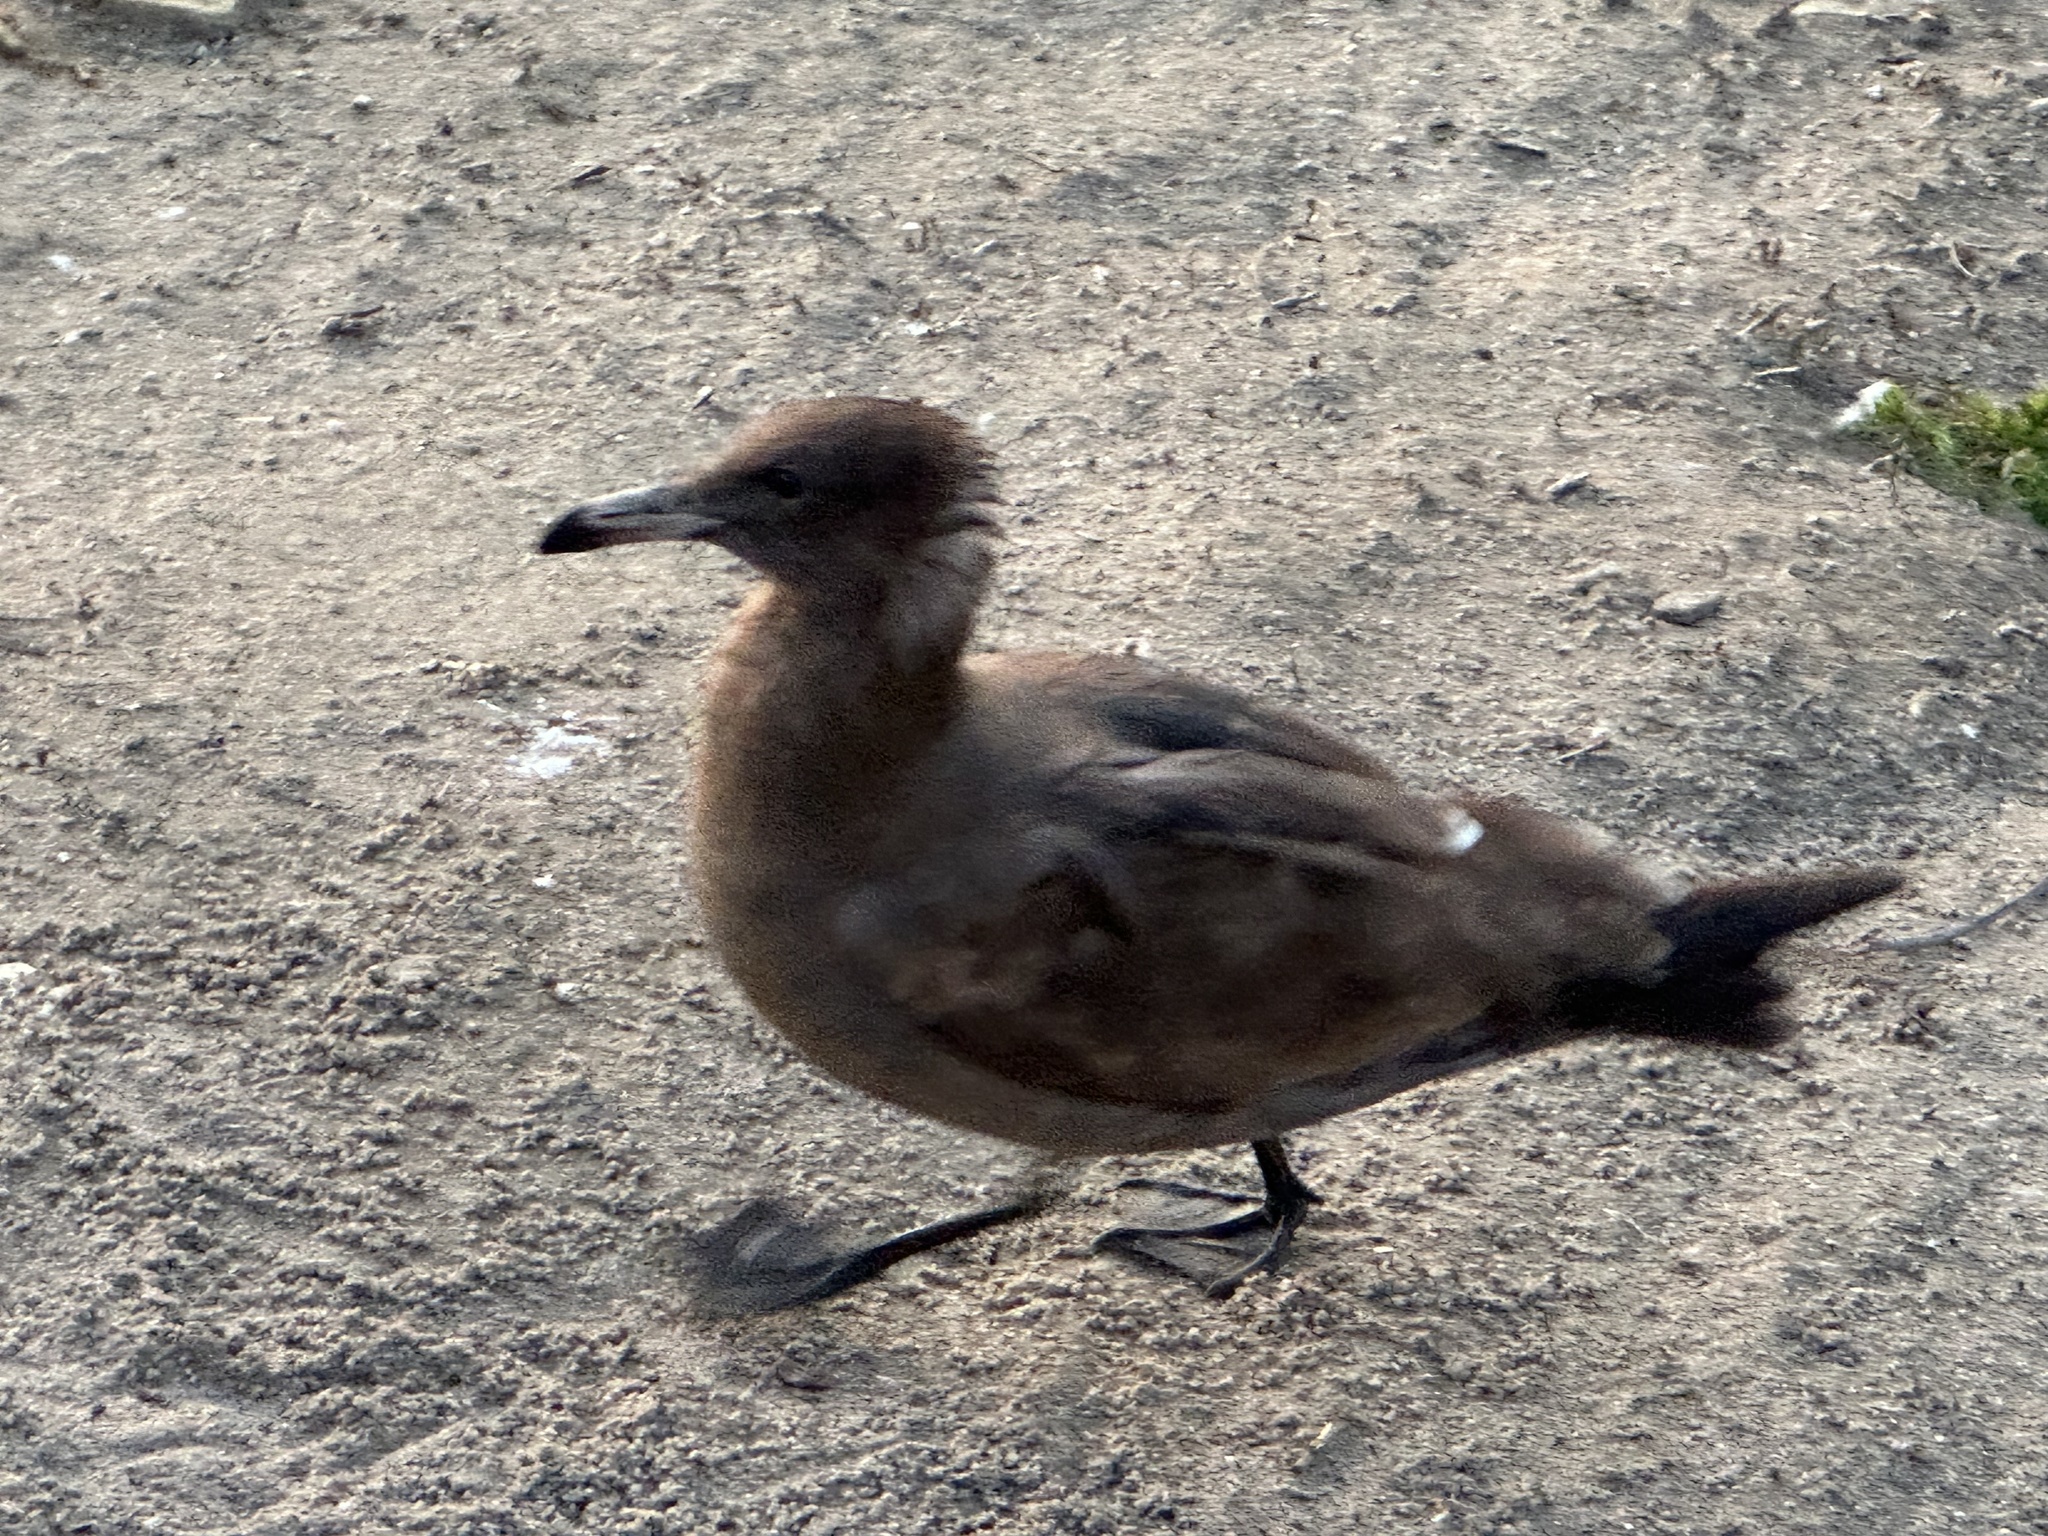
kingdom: Animalia
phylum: Chordata
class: Aves
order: Charadriiformes
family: Laridae
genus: Larus
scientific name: Larus heermanni
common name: Heermann's gull
